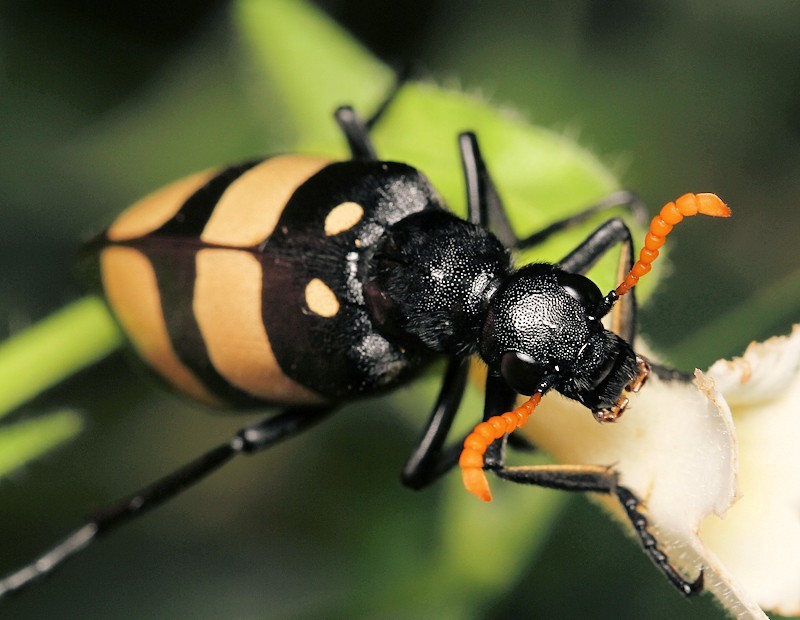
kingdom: Animalia
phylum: Arthropoda
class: Insecta
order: Coleoptera
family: Meloidae
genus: Hycleus
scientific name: Hycleus
